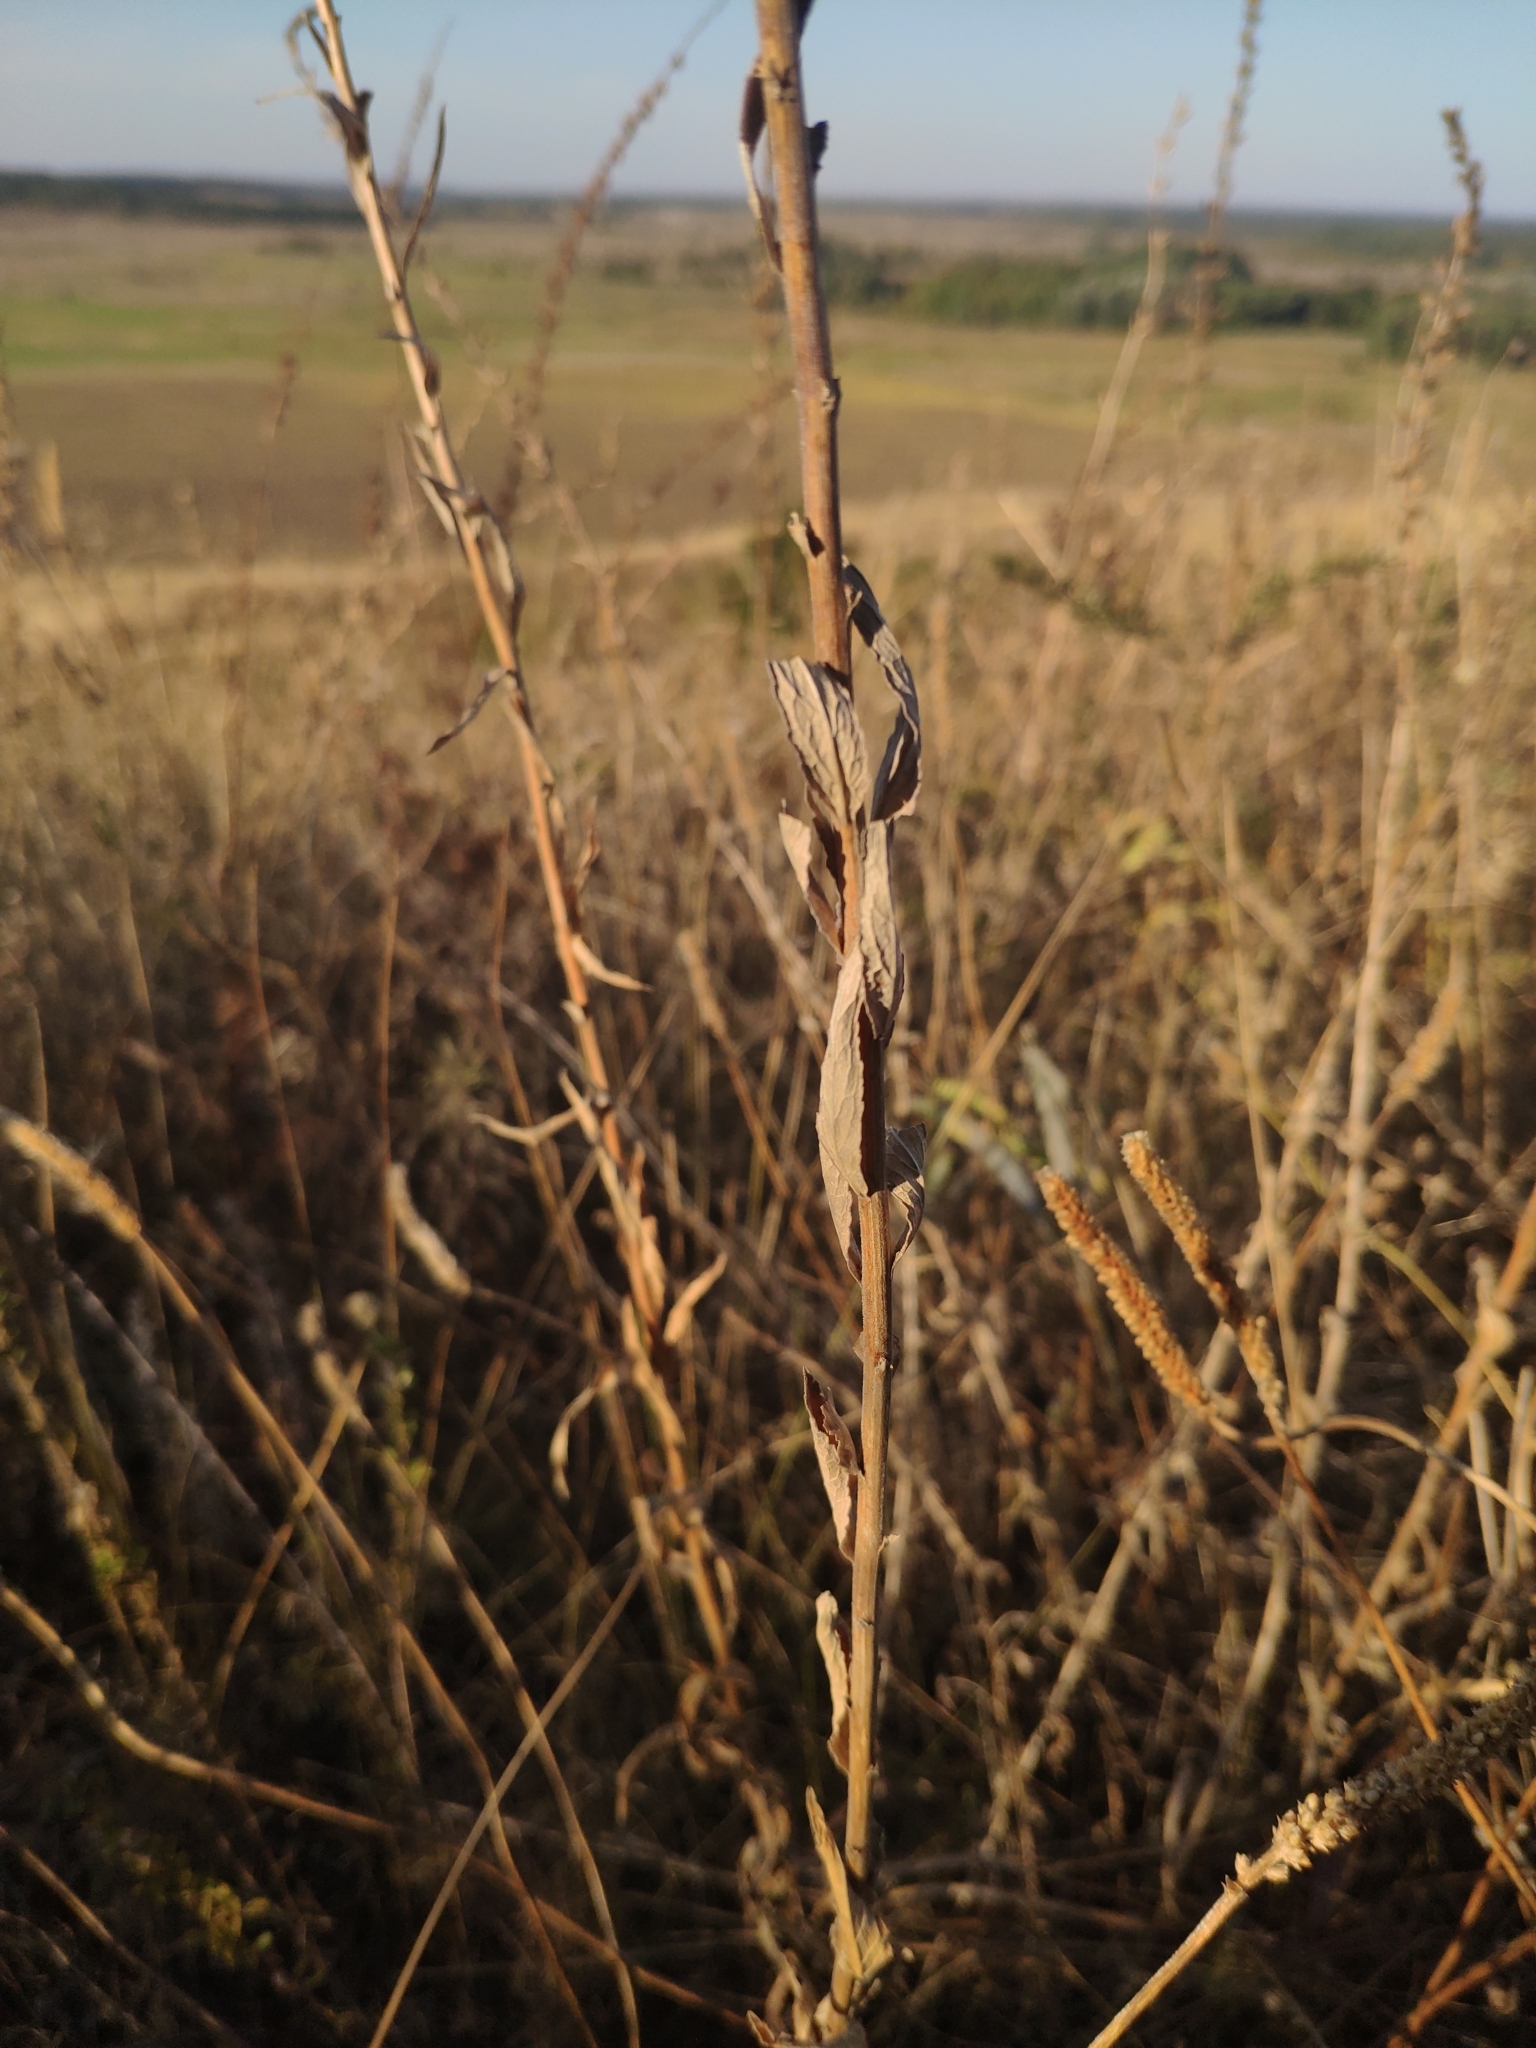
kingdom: Plantae
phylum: Tracheophyta
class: Magnoliopsida
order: Asterales
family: Campanulaceae
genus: Asyneuma
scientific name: Asyneuma canescens
